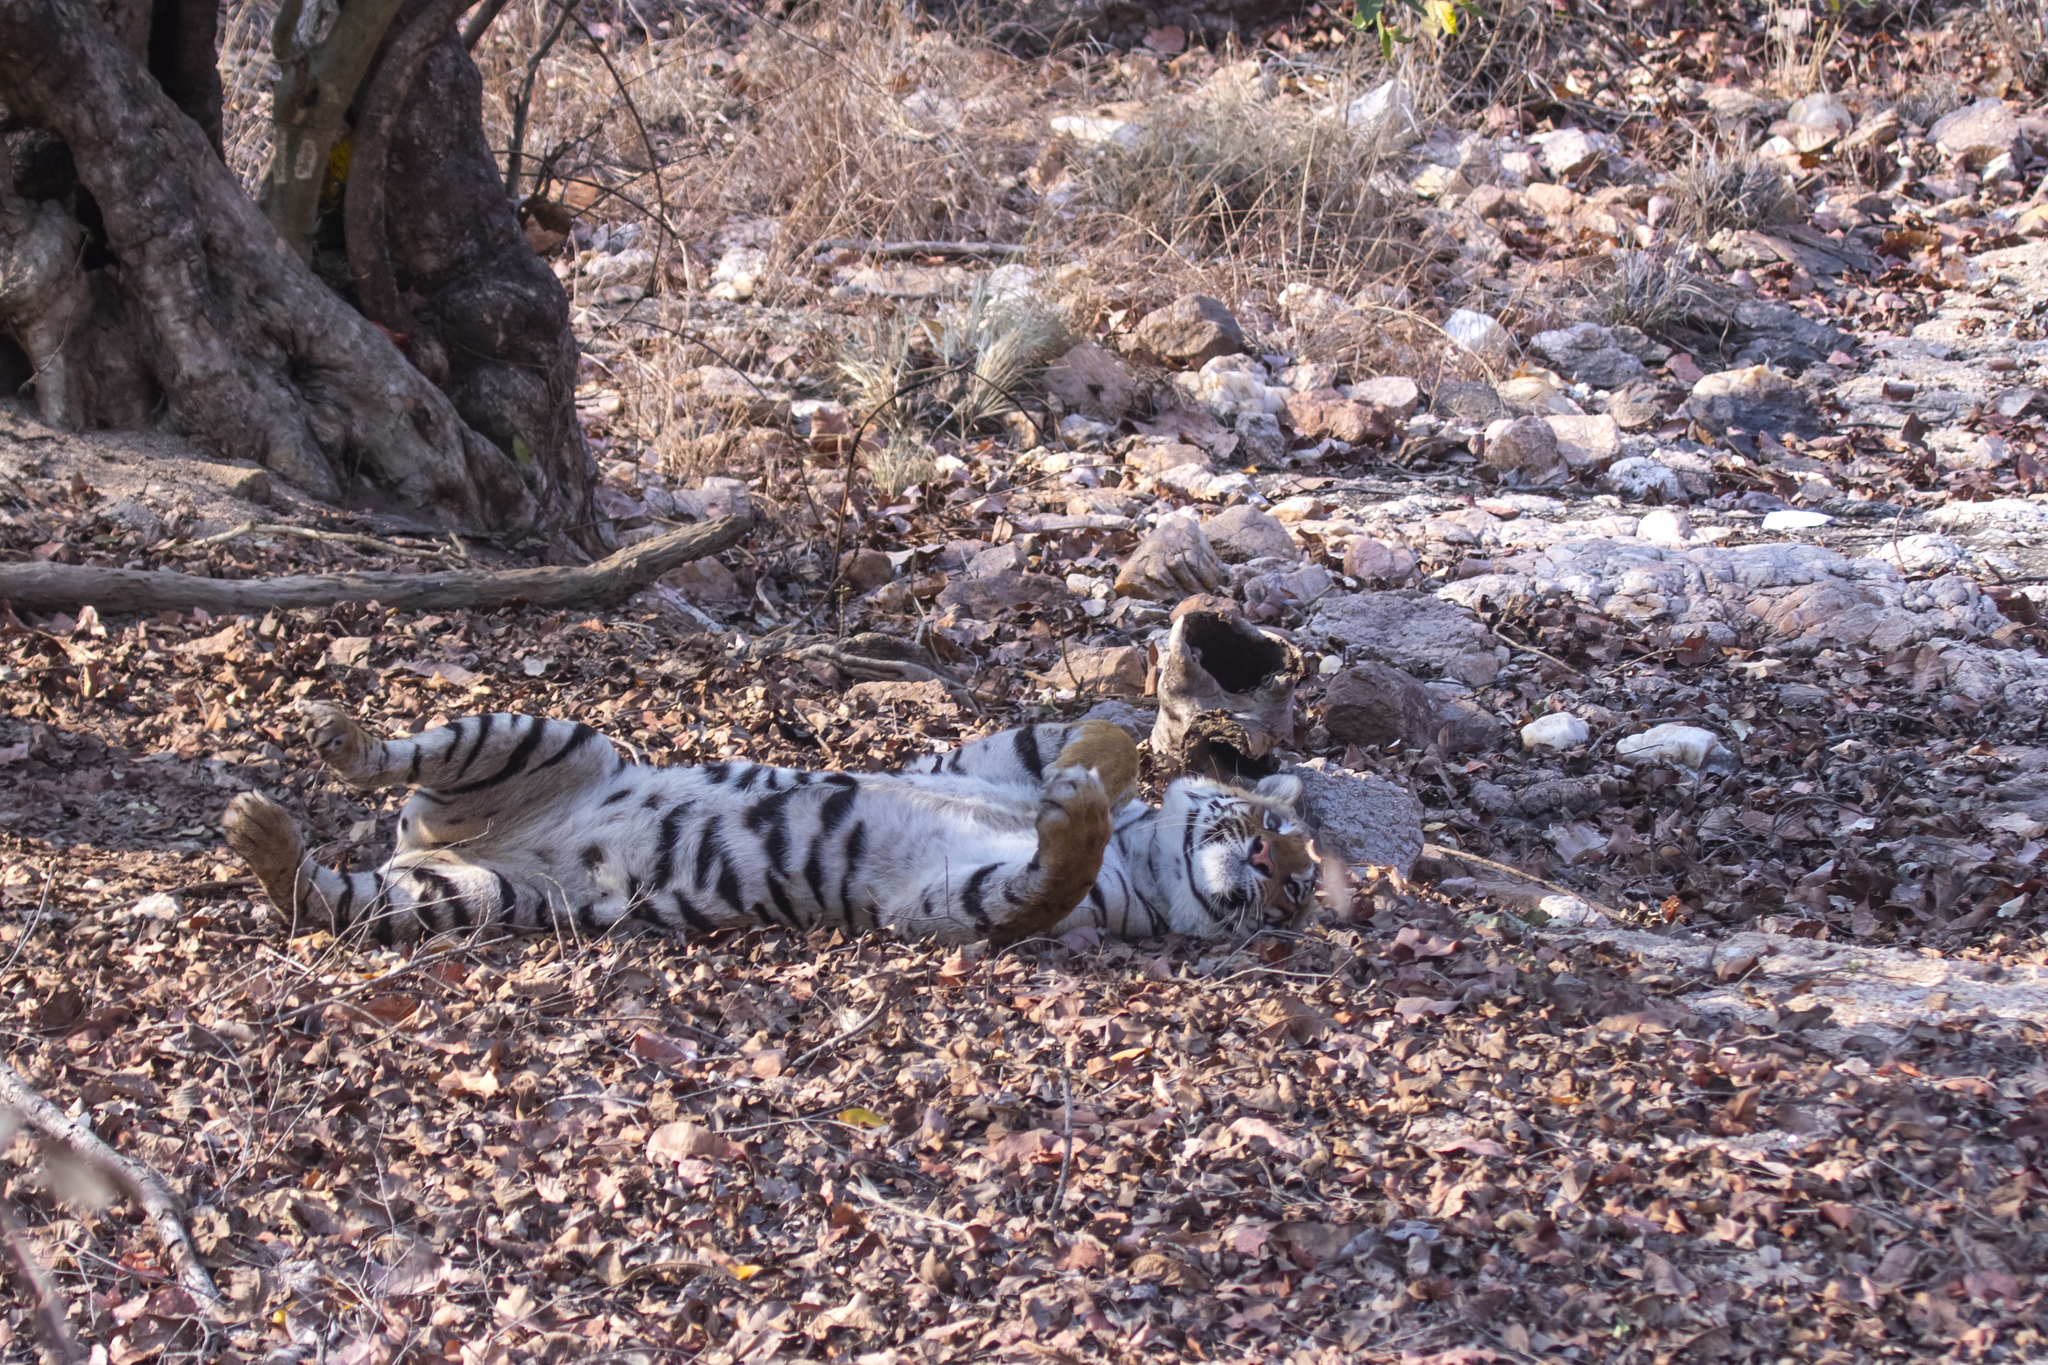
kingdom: Animalia
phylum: Chordata
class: Mammalia
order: Carnivora
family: Felidae
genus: Panthera
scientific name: Panthera tigris
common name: Tiger
